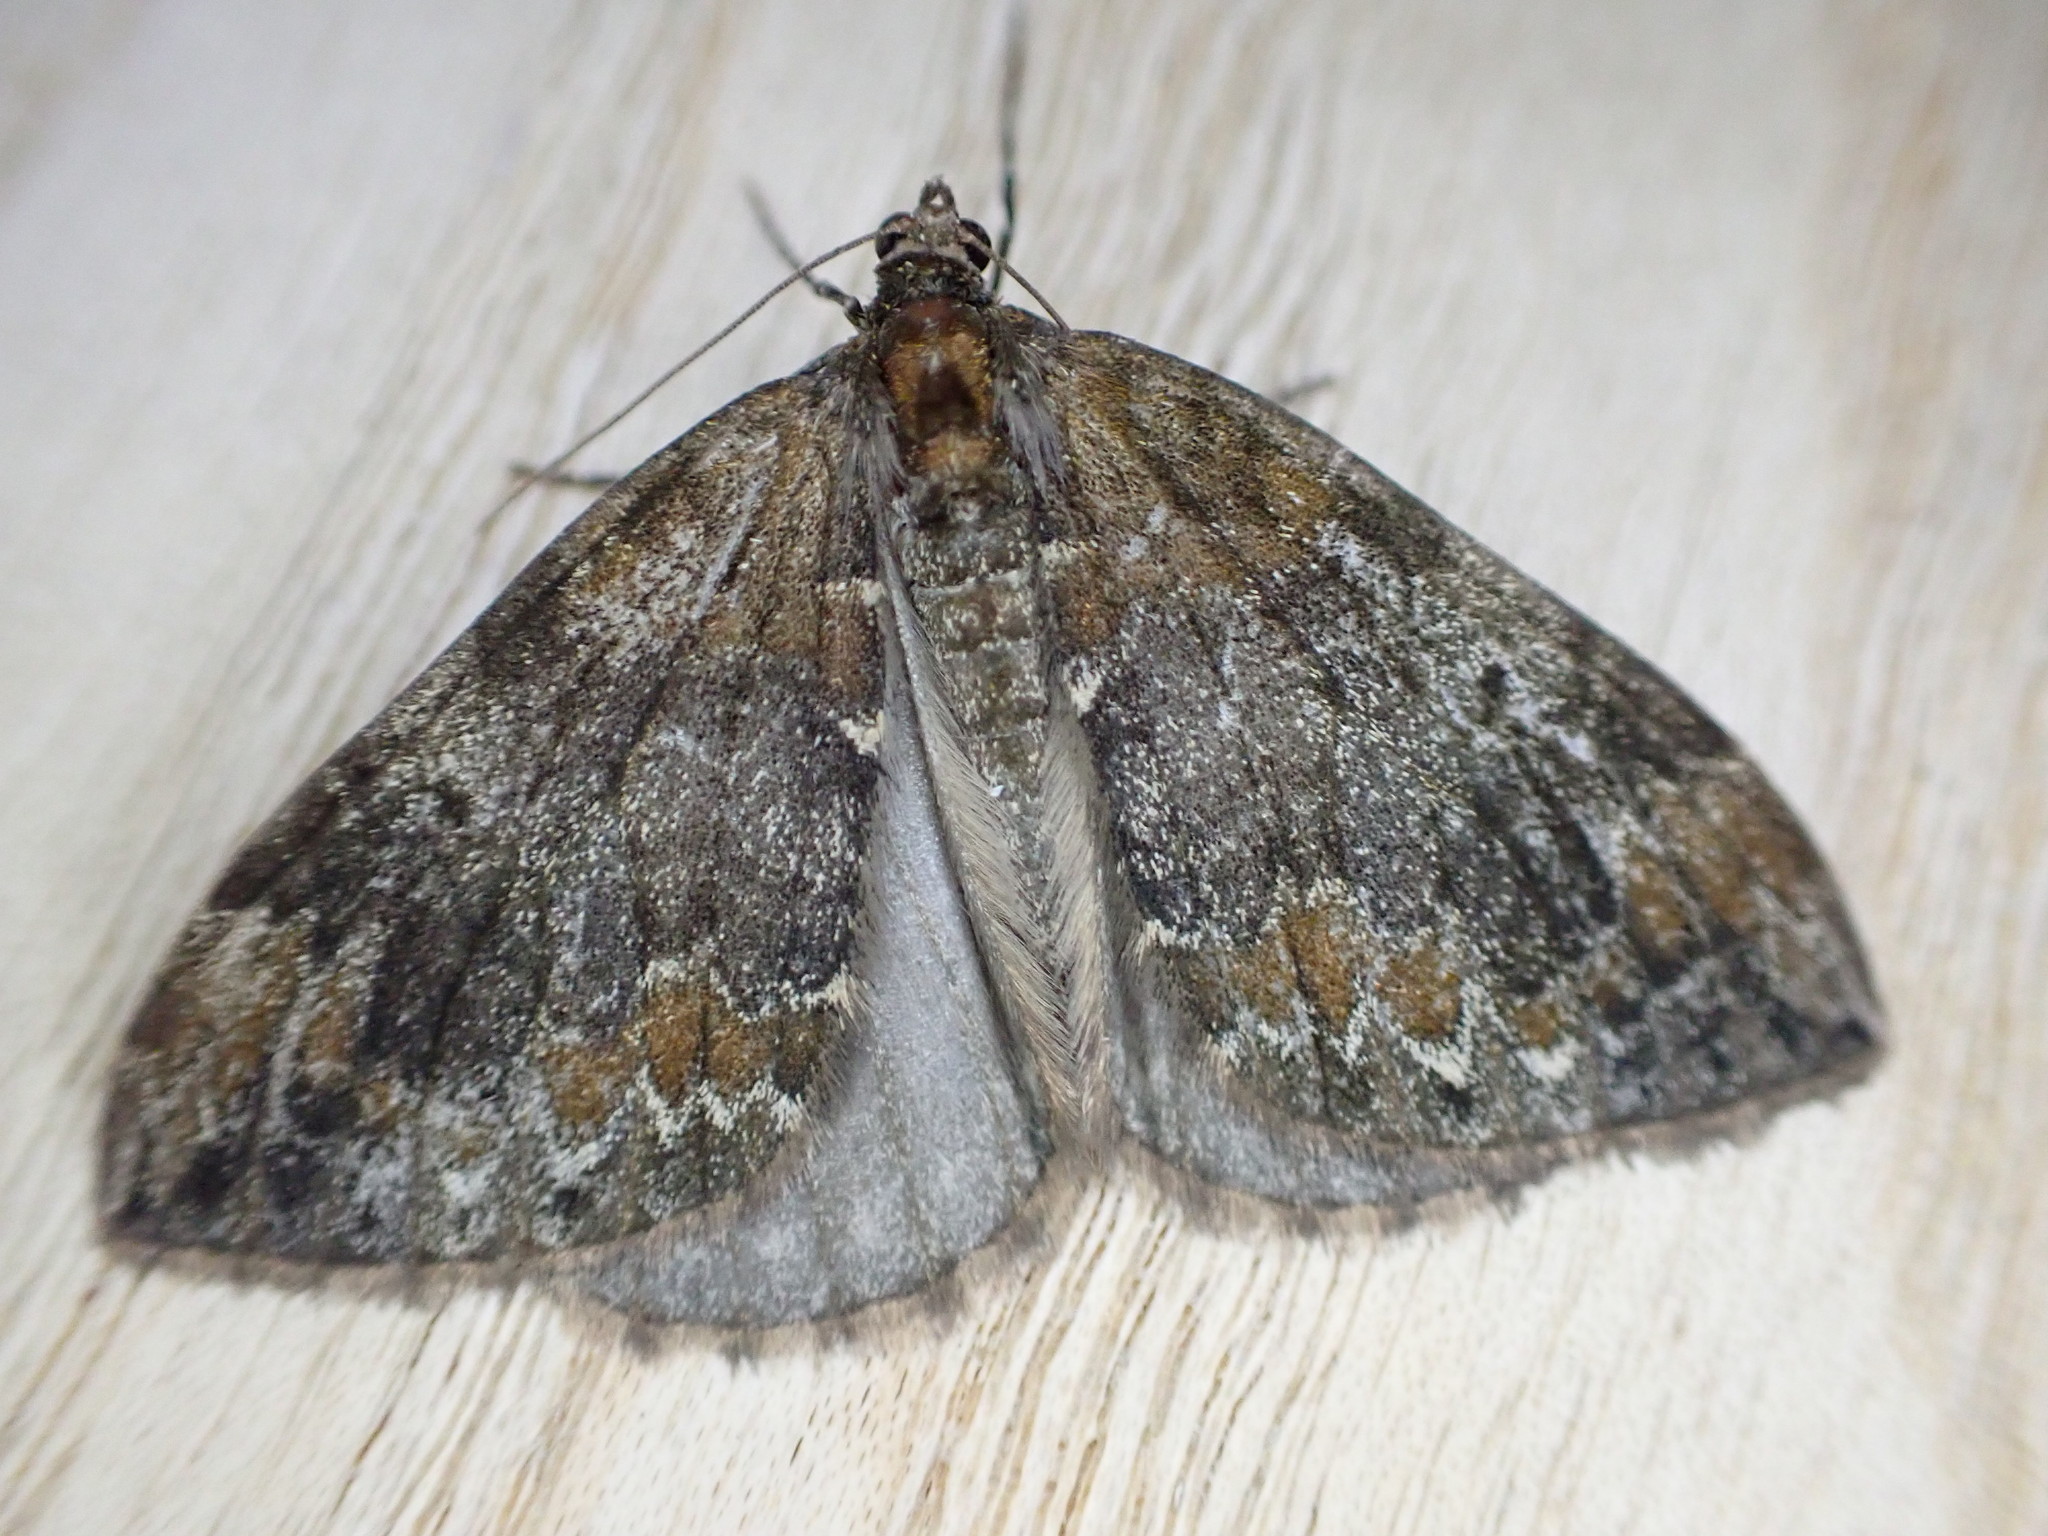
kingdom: Animalia
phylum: Arthropoda
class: Insecta
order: Lepidoptera
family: Geometridae
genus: Dysstroma
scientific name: Dysstroma truncata
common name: Common marbled carpet
